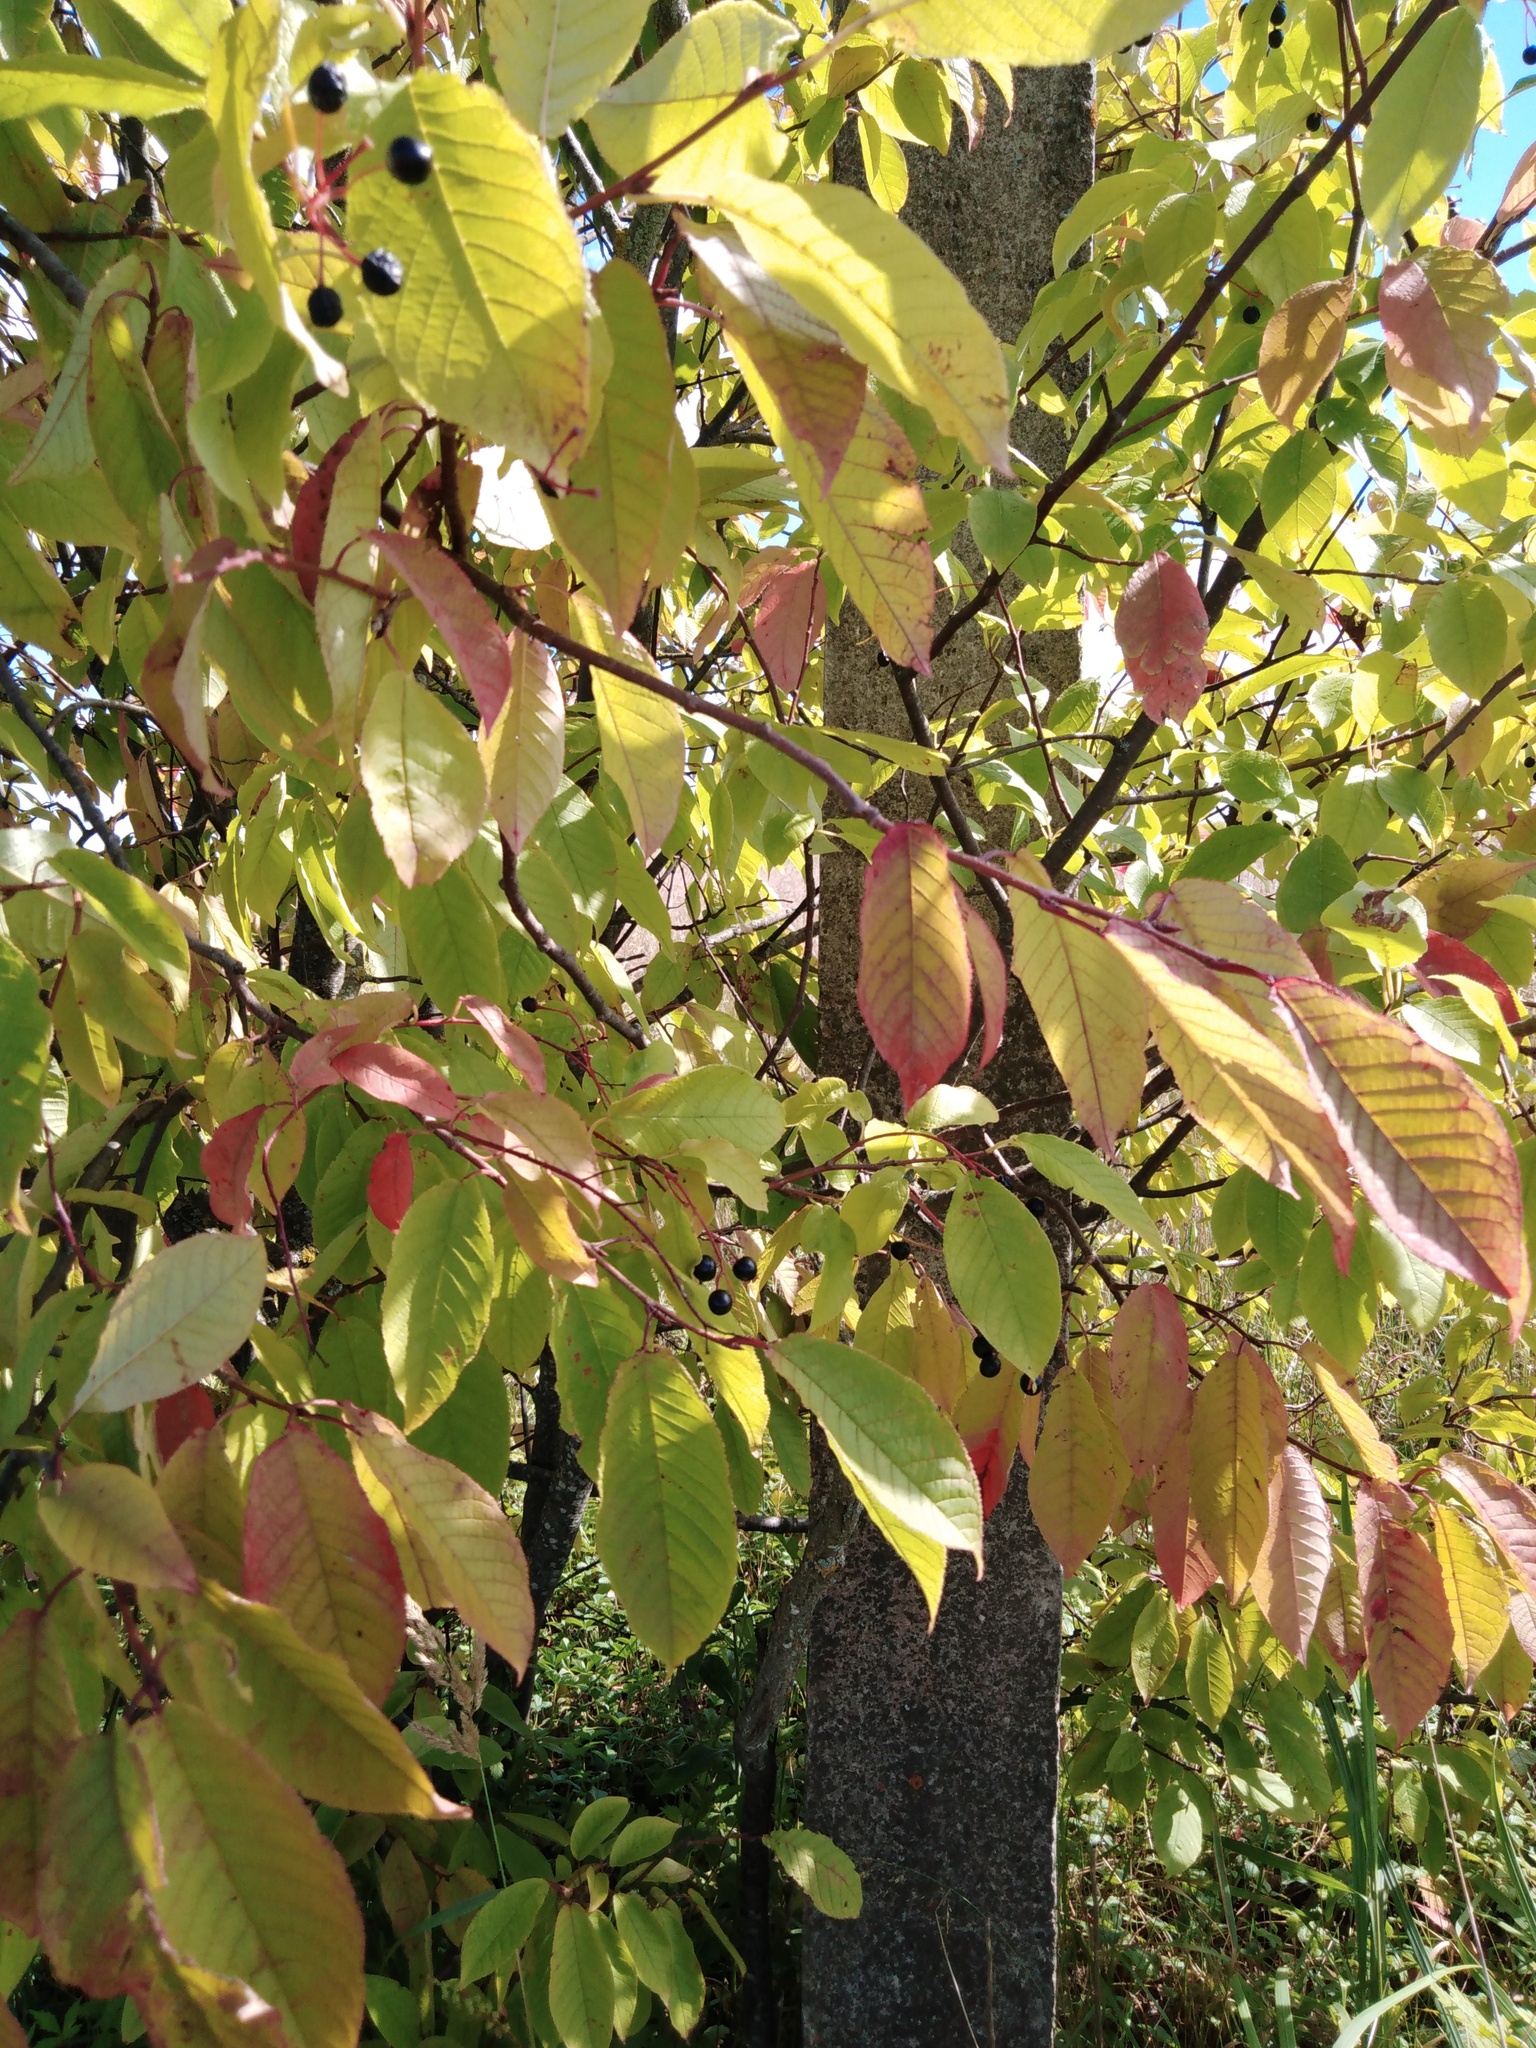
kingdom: Plantae
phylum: Tracheophyta
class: Magnoliopsida
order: Rosales
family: Rosaceae
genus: Prunus
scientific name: Prunus padus
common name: Bird cherry
